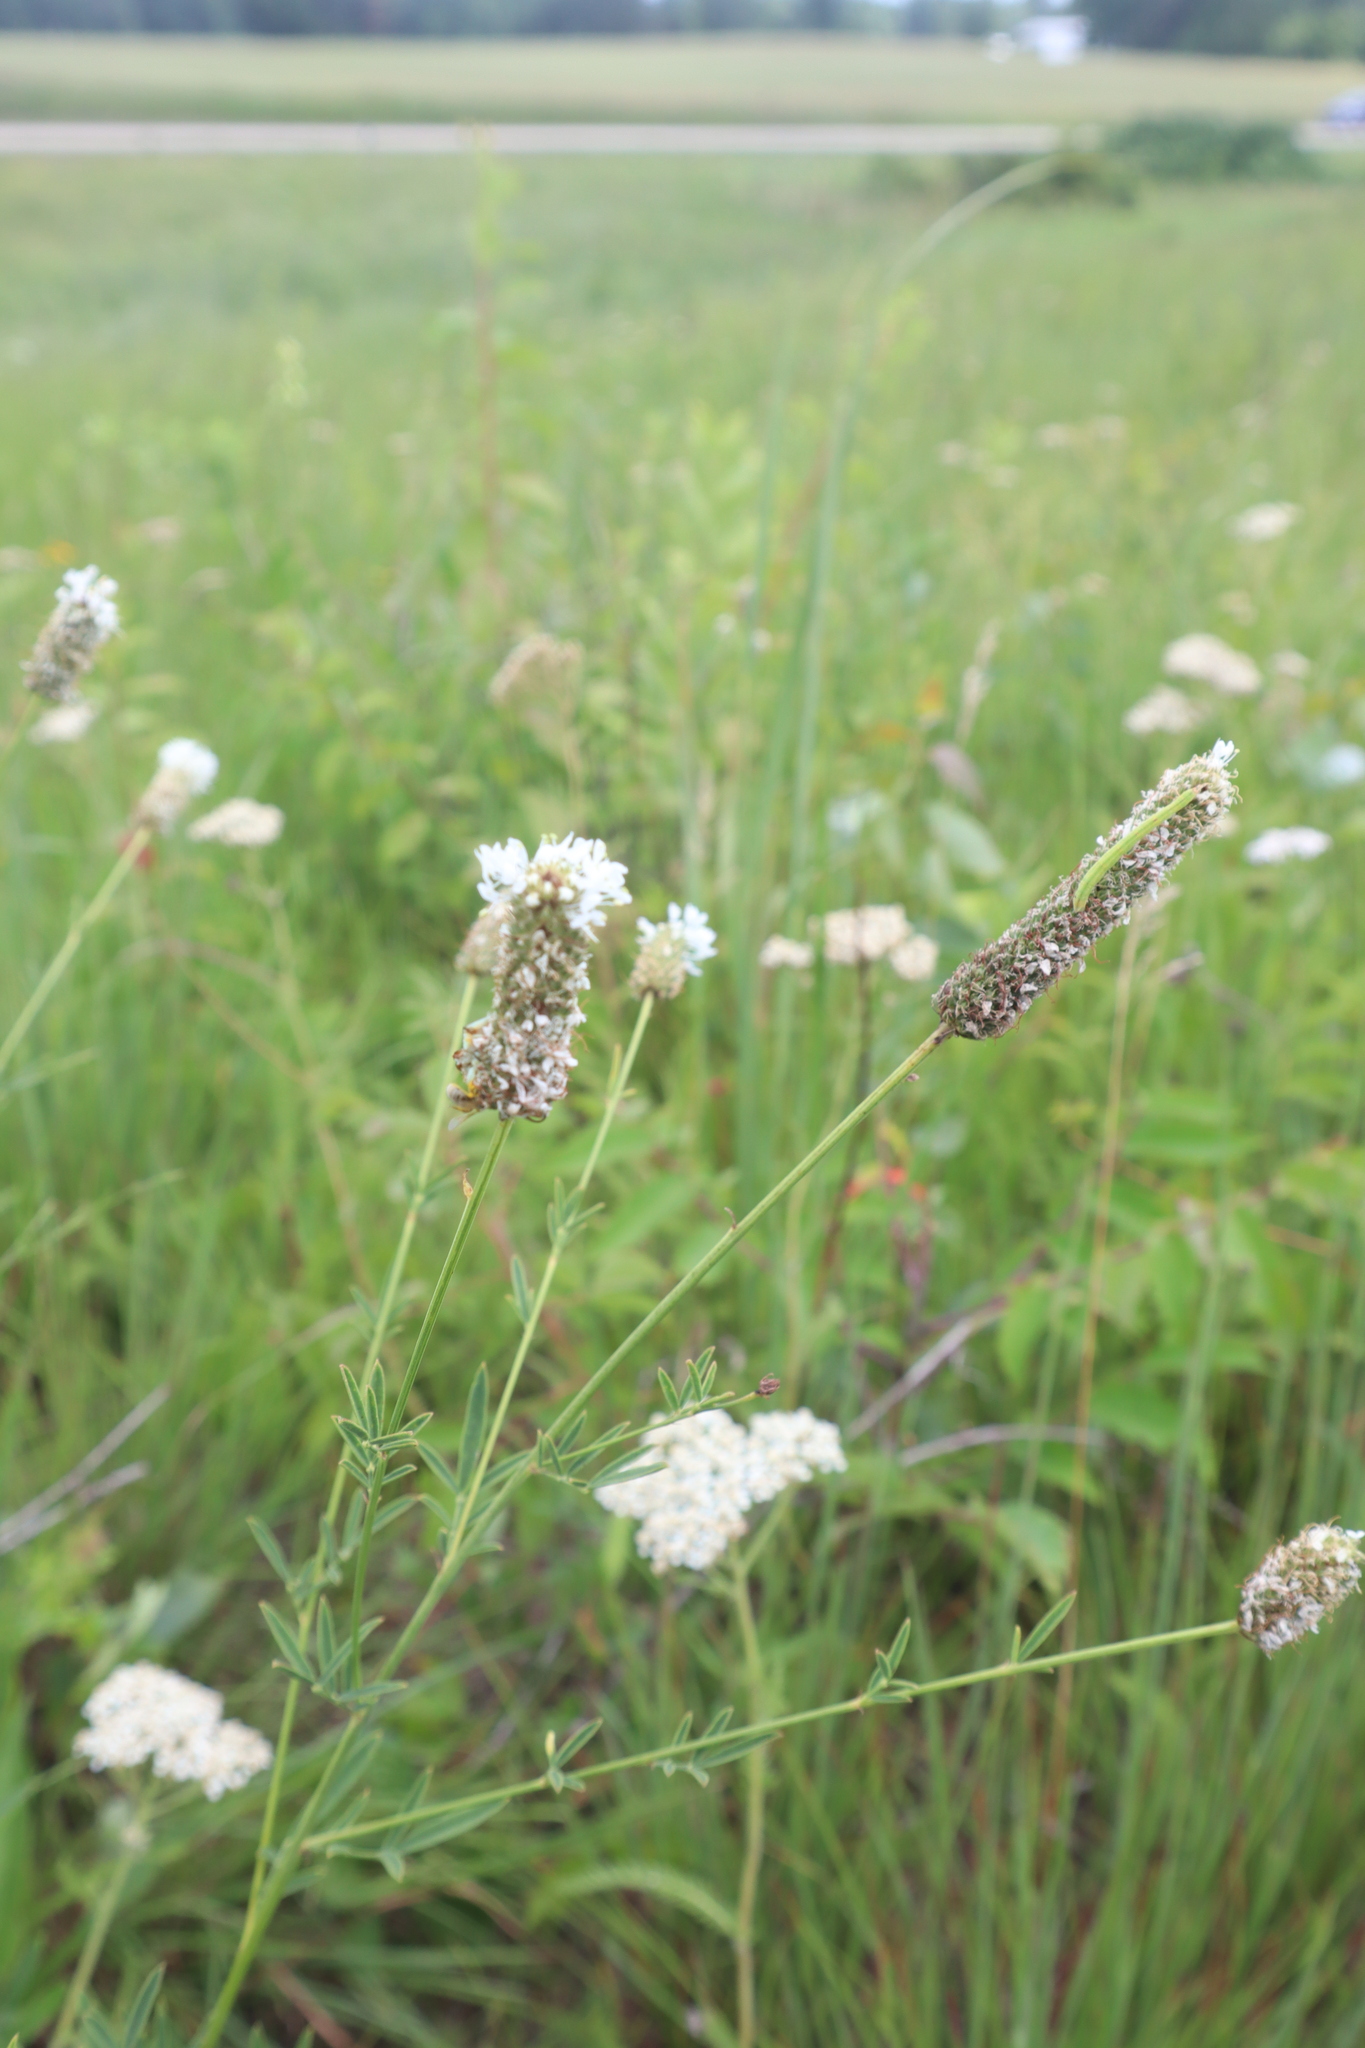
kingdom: Plantae
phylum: Tracheophyta
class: Magnoliopsida
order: Fabales
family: Fabaceae
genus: Dalea
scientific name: Dalea candida
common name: White prairie-clover
